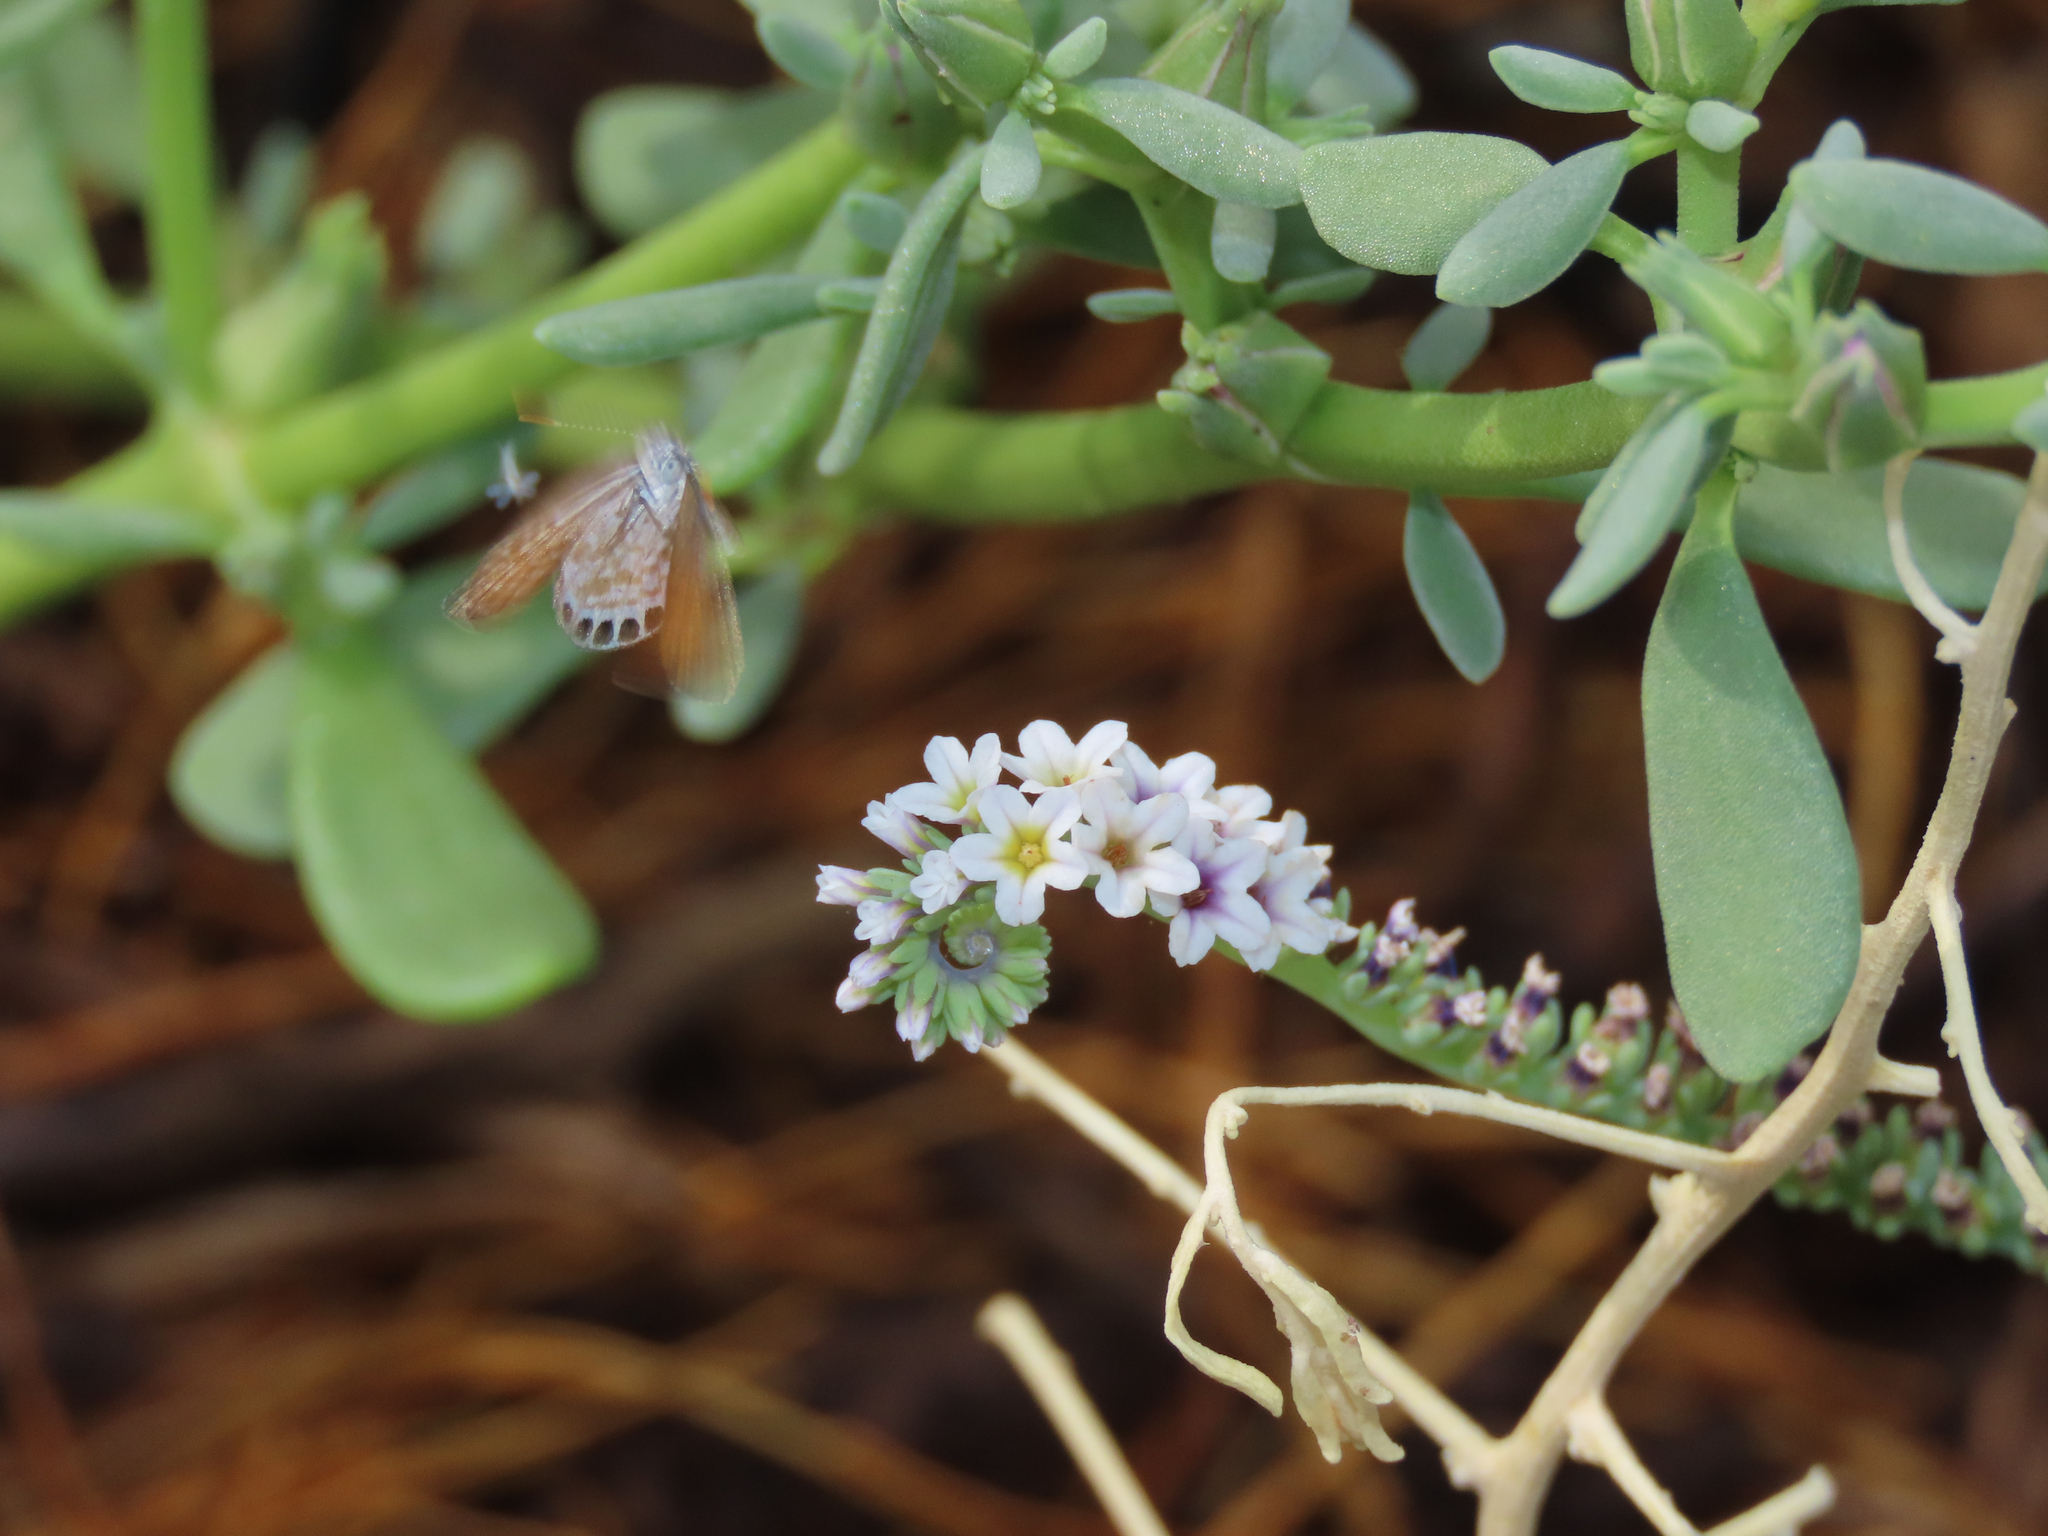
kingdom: Animalia
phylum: Arthropoda
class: Insecta
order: Lepidoptera
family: Lycaenidae
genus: Brephidium
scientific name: Brephidium exilis
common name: Pygmy blue
